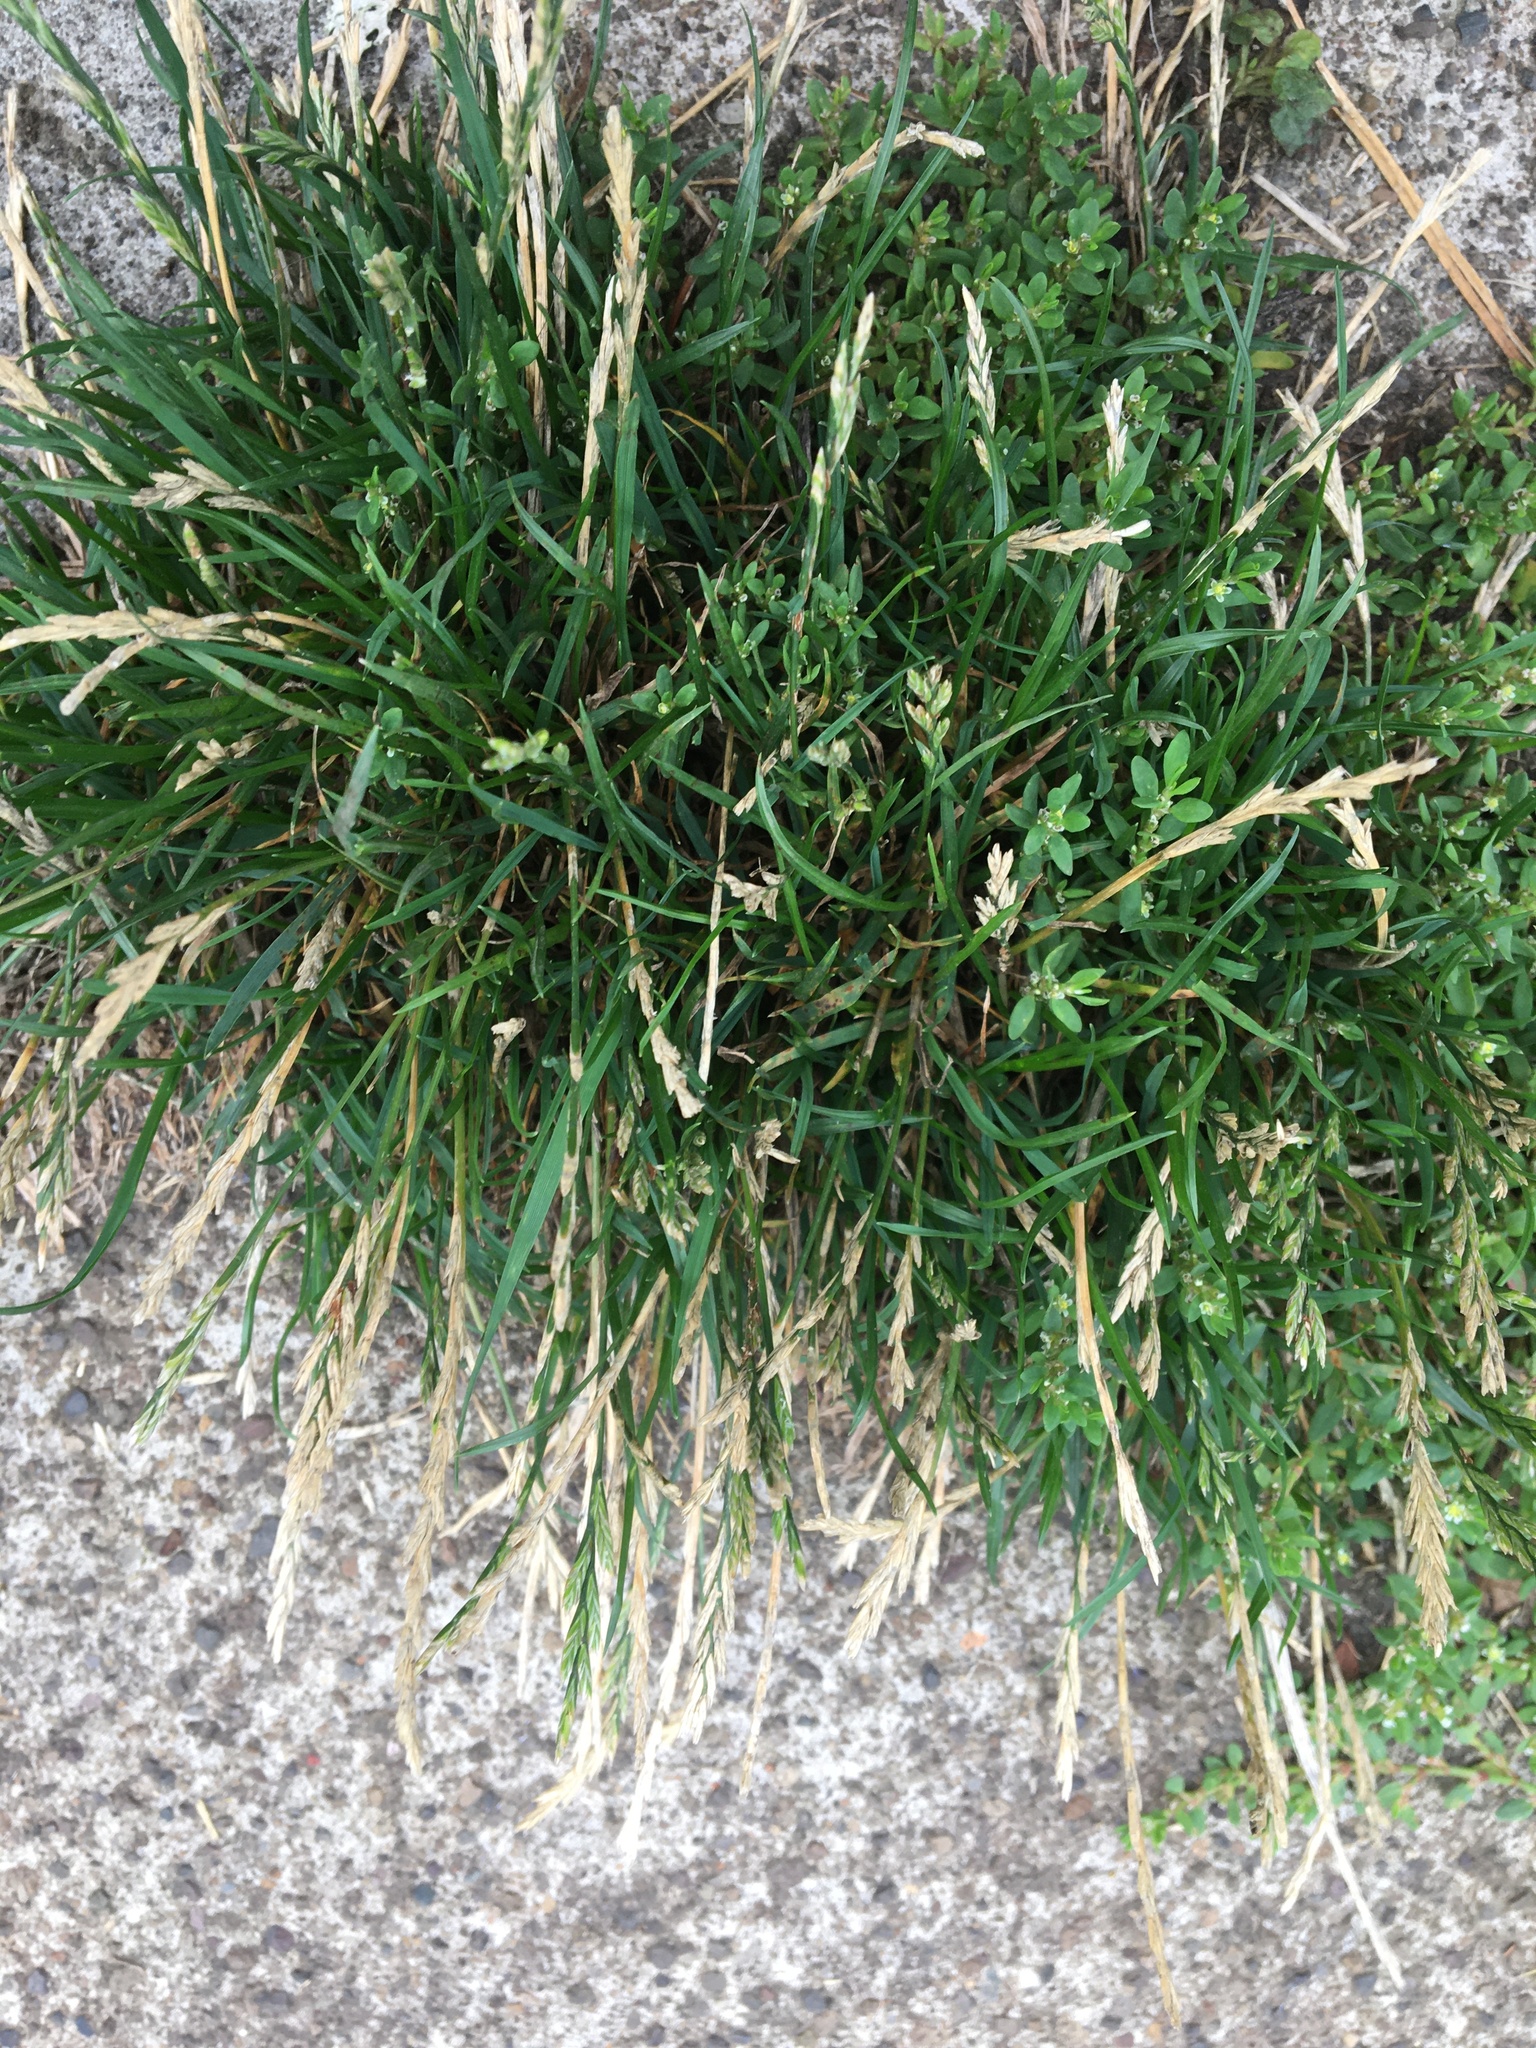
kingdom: Plantae
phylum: Tracheophyta
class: Liliopsida
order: Poales
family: Poaceae
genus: Lolium
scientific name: Lolium perenne
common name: Perennial ryegrass
